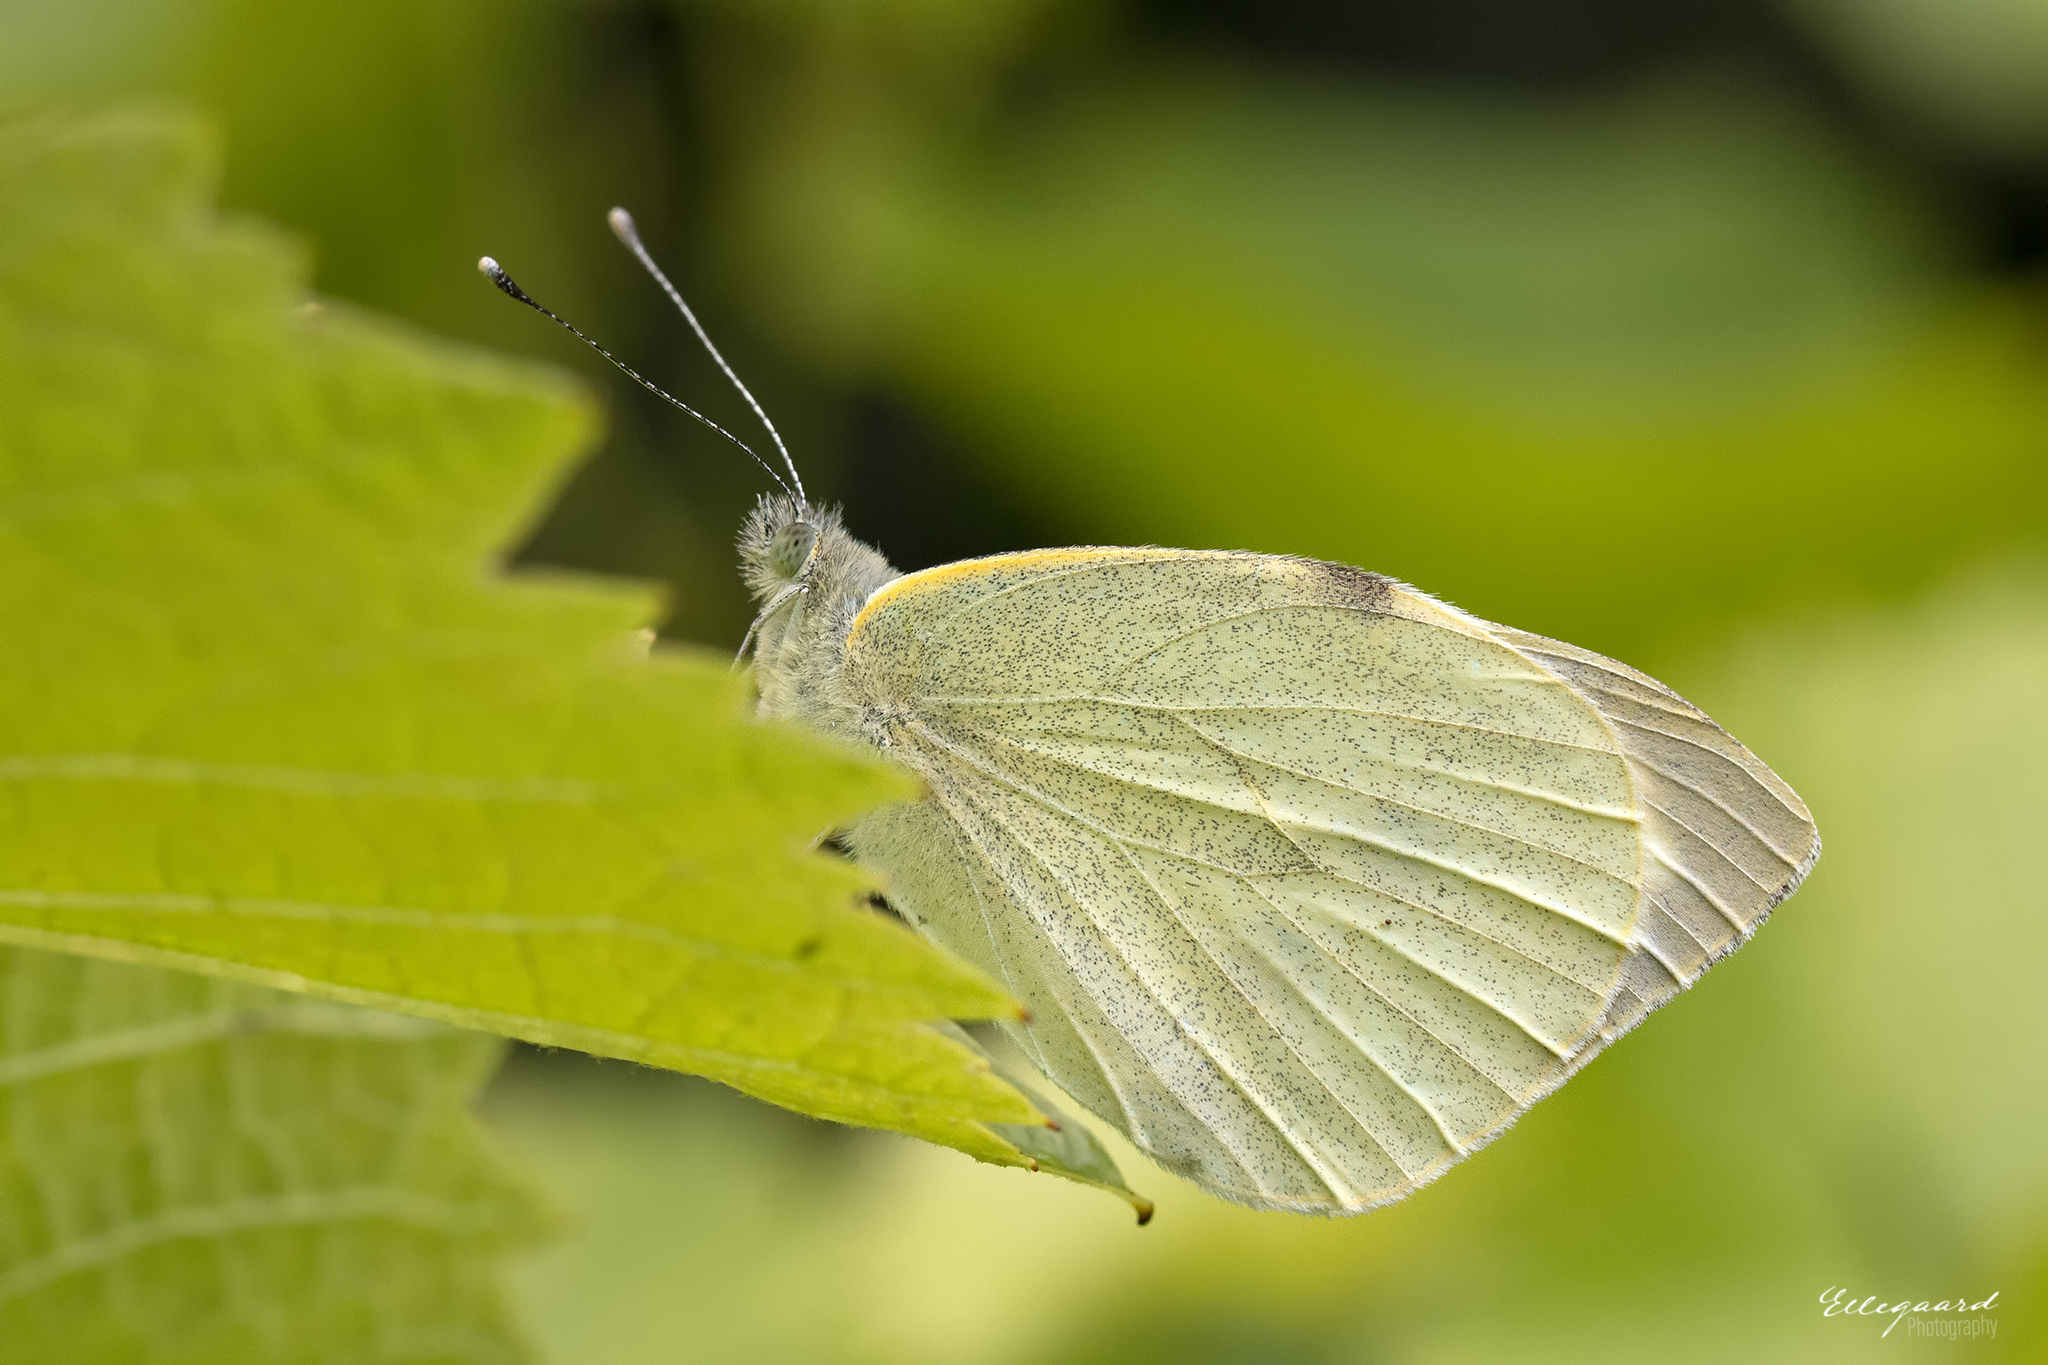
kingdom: Animalia
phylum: Arthropoda
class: Insecta
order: Lepidoptera
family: Pieridae
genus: Pieris
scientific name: Pieris brassicae
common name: Large white
